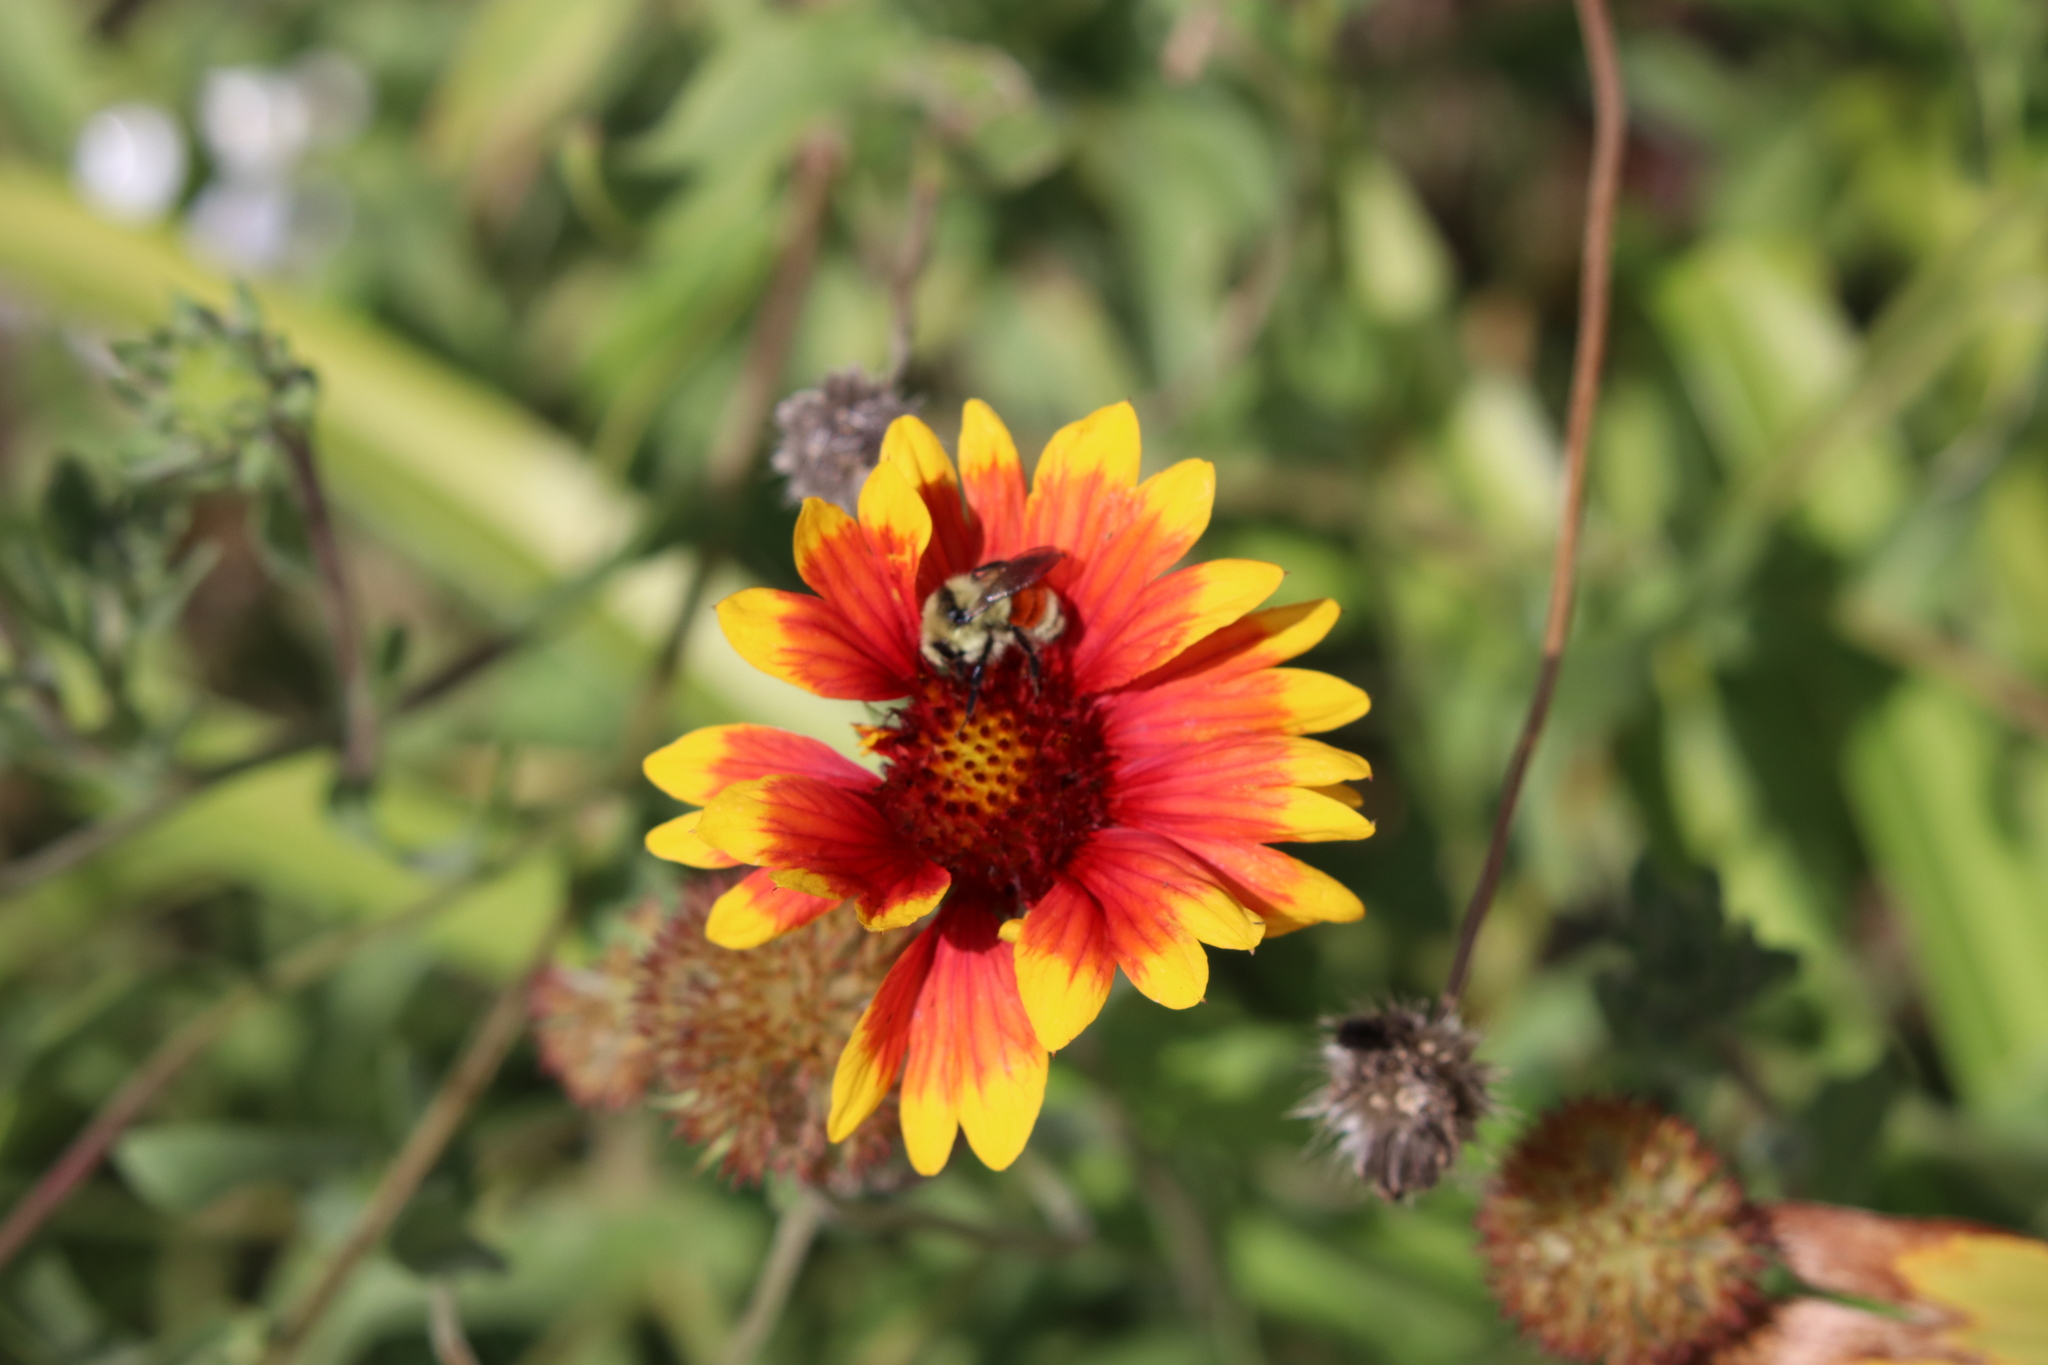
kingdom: Animalia
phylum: Arthropoda
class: Insecta
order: Hymenoptera
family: Apidae
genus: Bombus
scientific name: Bombus huntii
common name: Hunt bumble bee
